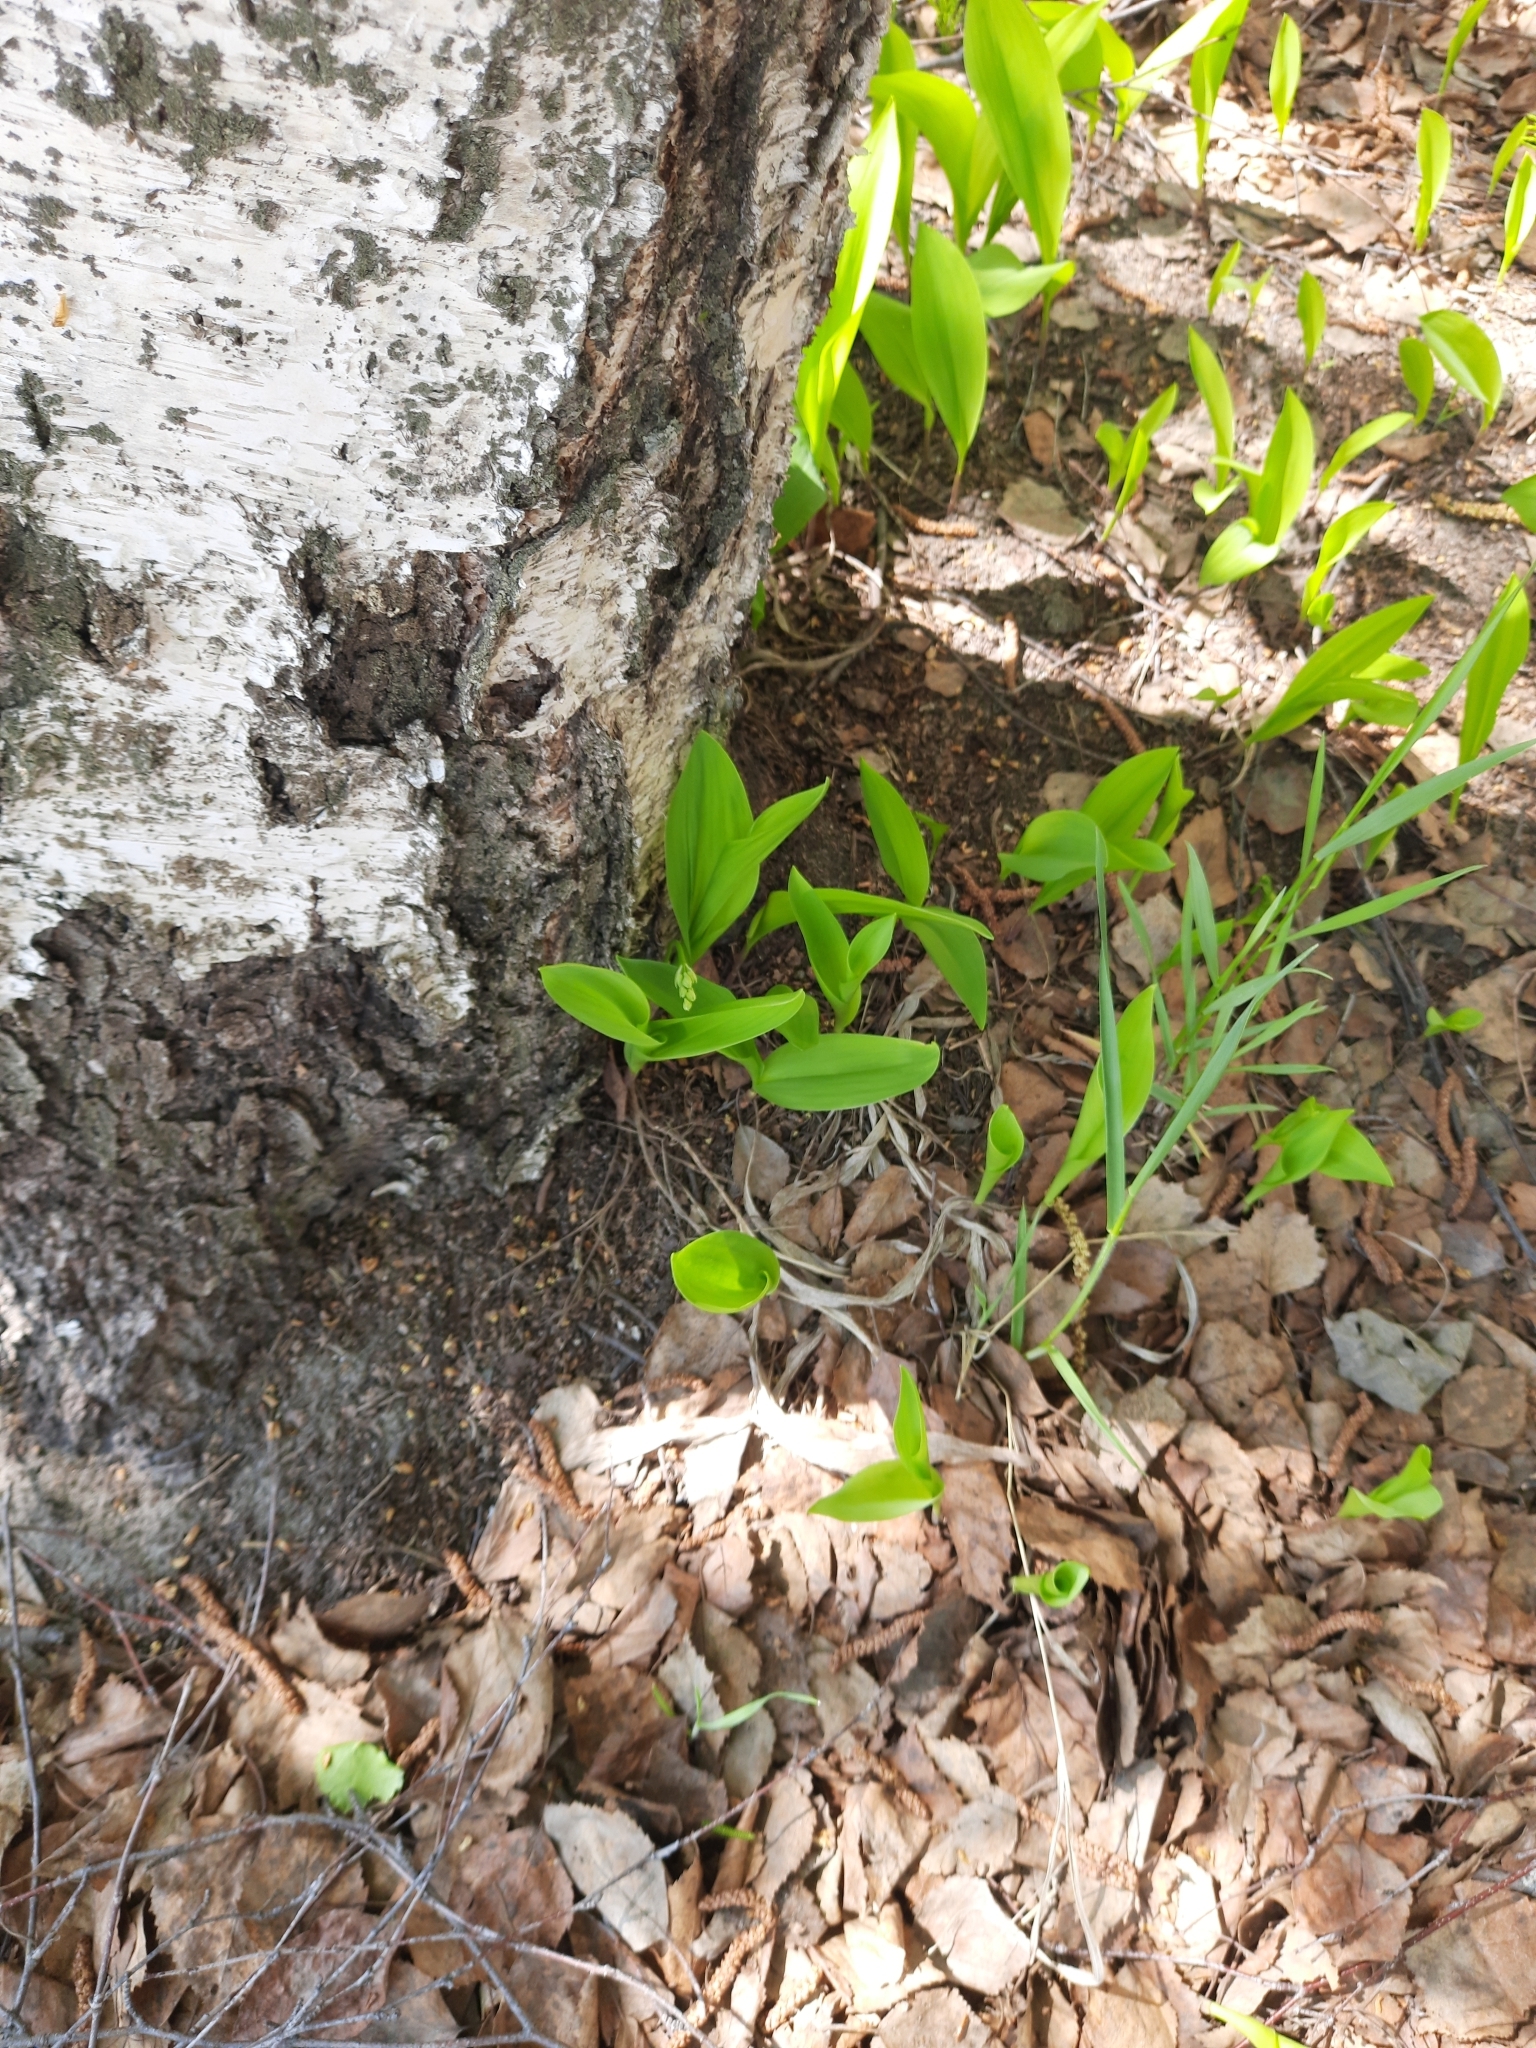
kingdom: Plantae
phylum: Tracheophyta
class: Liliopsida
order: Asparagales
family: Asparagaceae
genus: Convallaria
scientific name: Convallaria majalis
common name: Lily-of-the-valley
